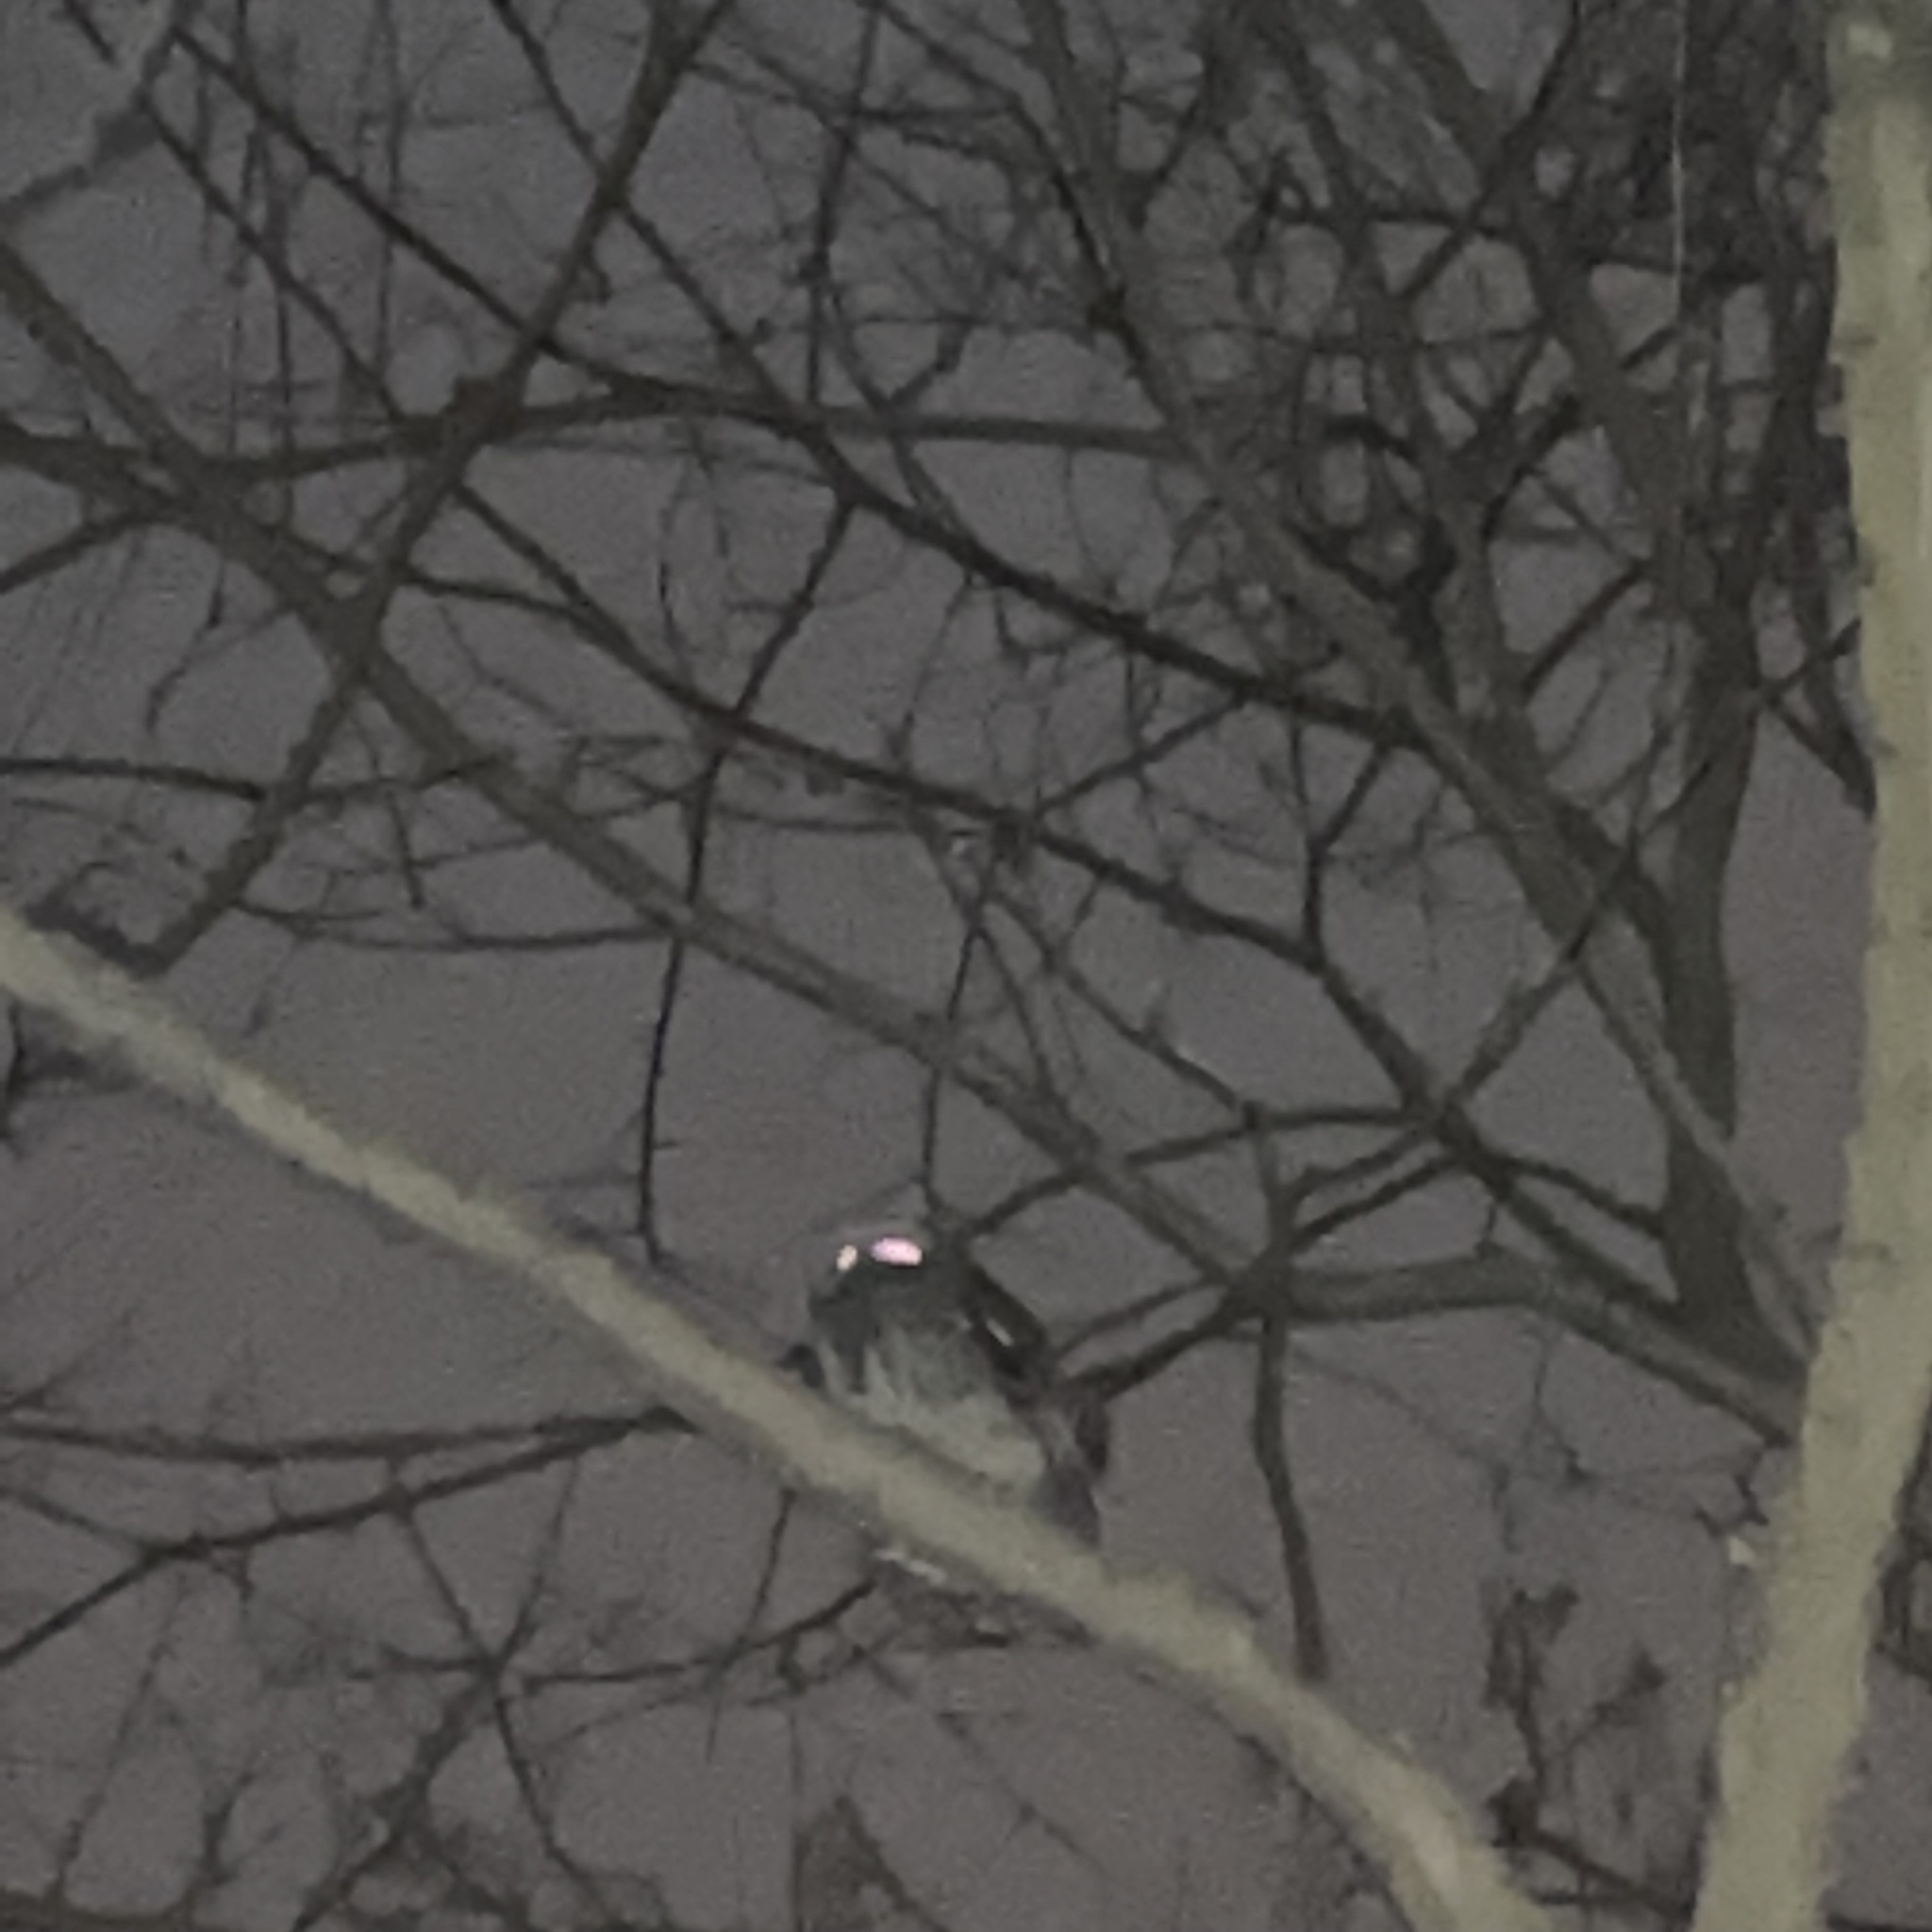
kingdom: Animalia
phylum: Chordata
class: Aves
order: Strigiformes
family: Strigidae
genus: Megascops
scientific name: Megascops asio
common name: Eastern screech-owl
